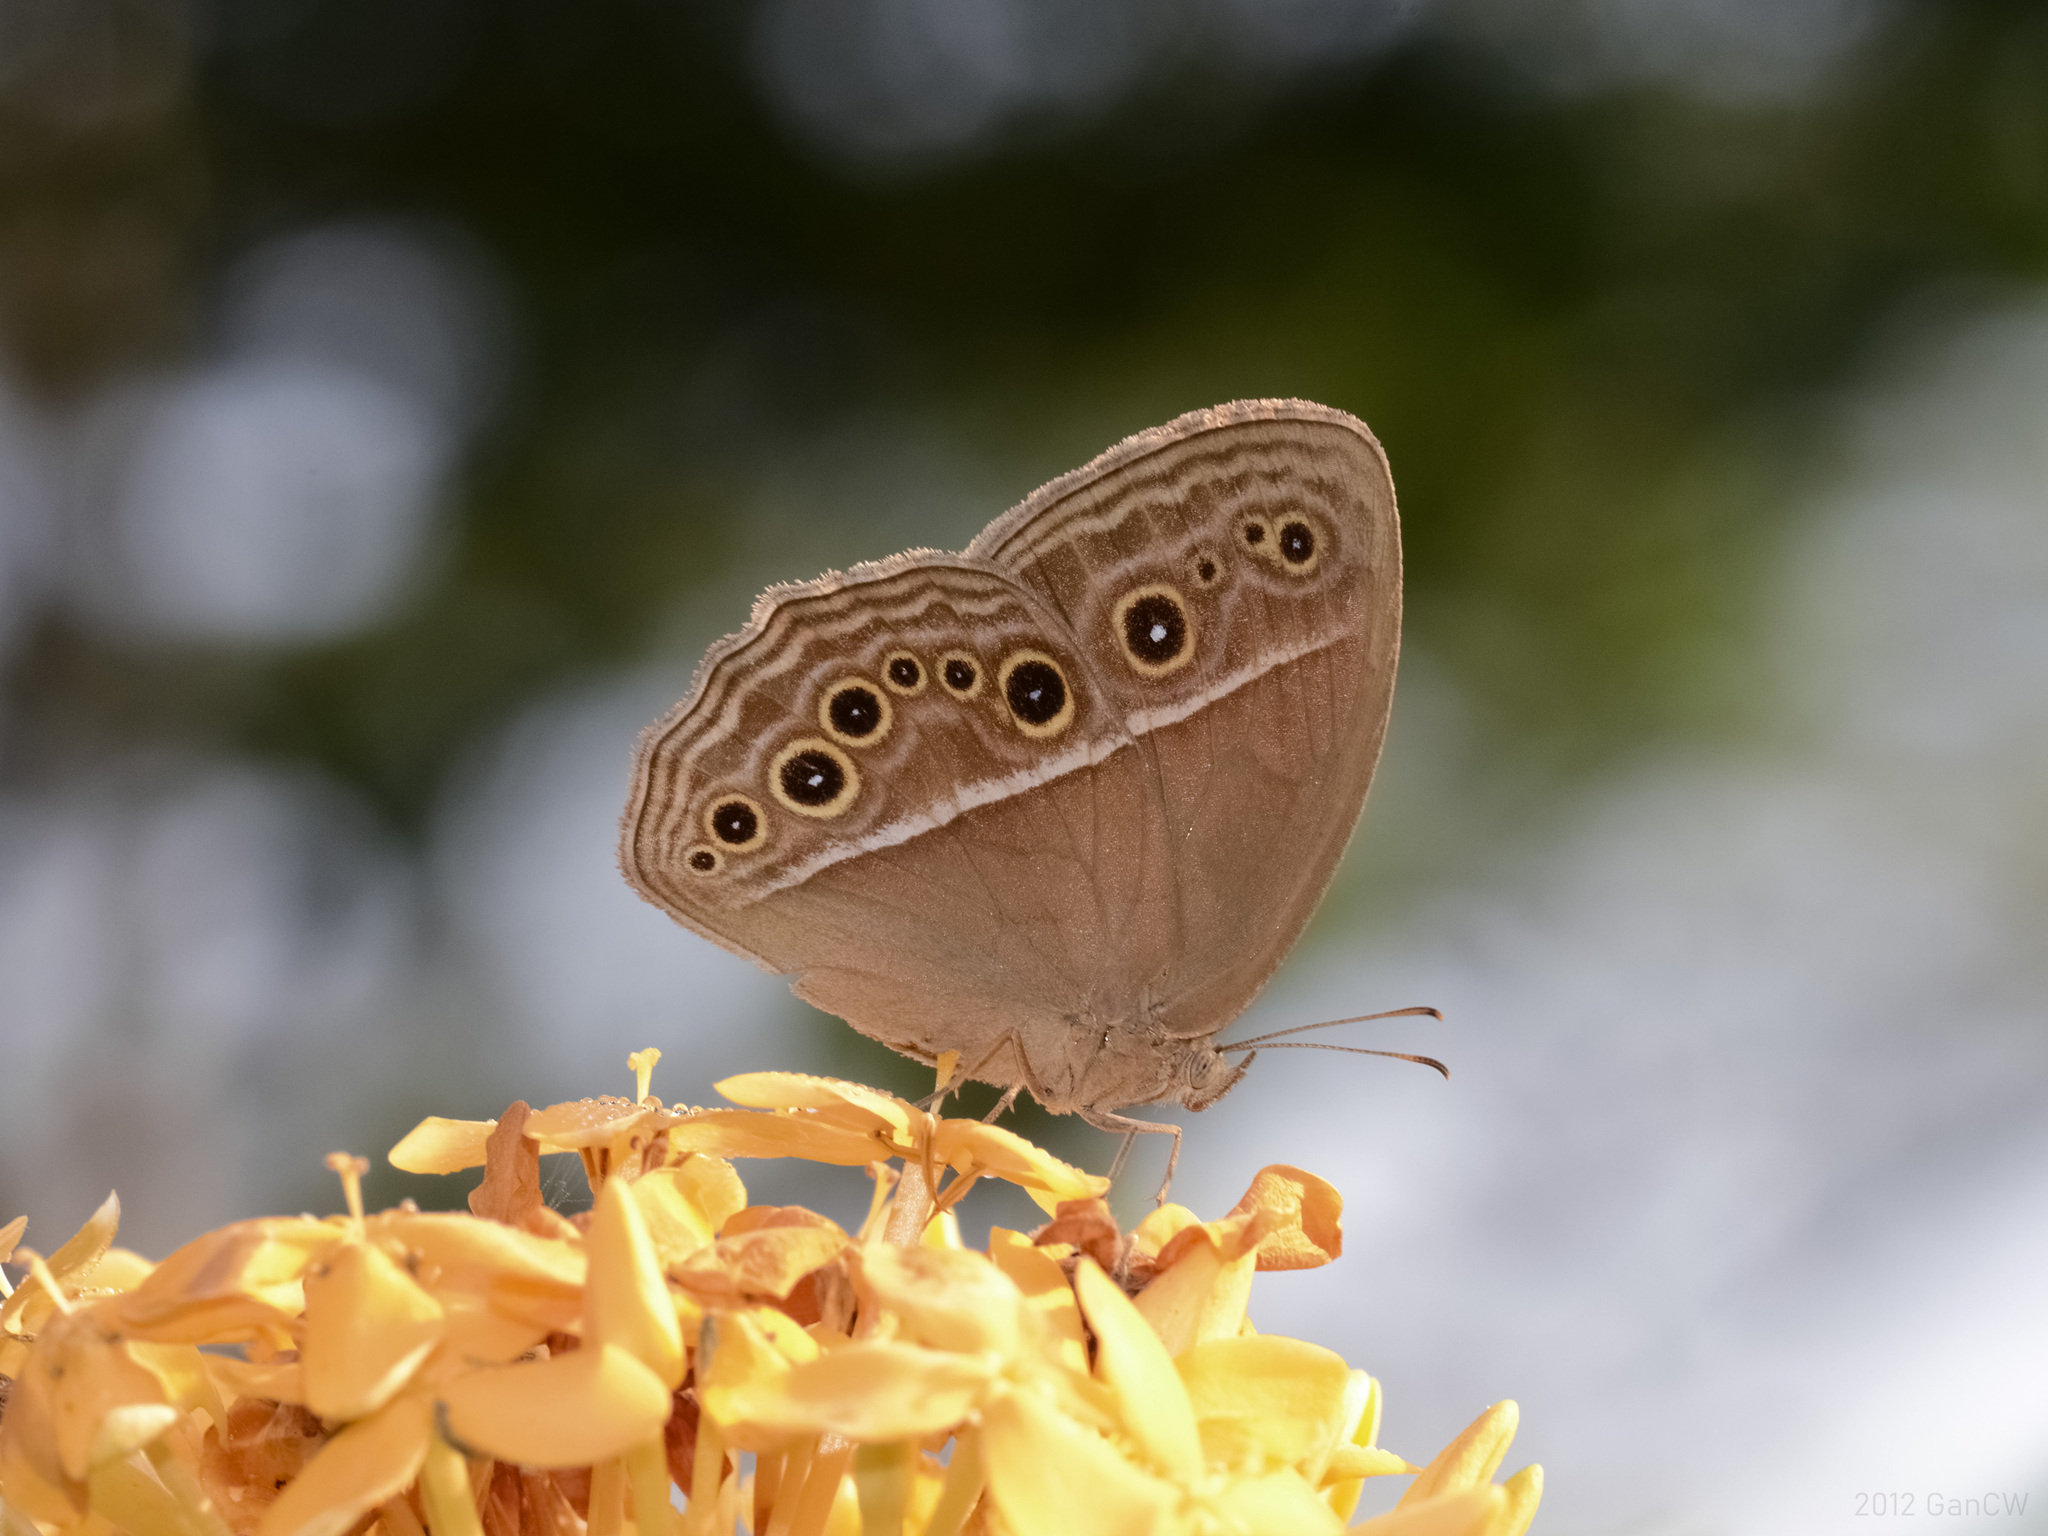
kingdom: Animalia
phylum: Arthropoda
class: Insecta
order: Lepidoptera
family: Nymphalidae
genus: Mycalesis
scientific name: Mycalesis perseus
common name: Dingy bushbrown
